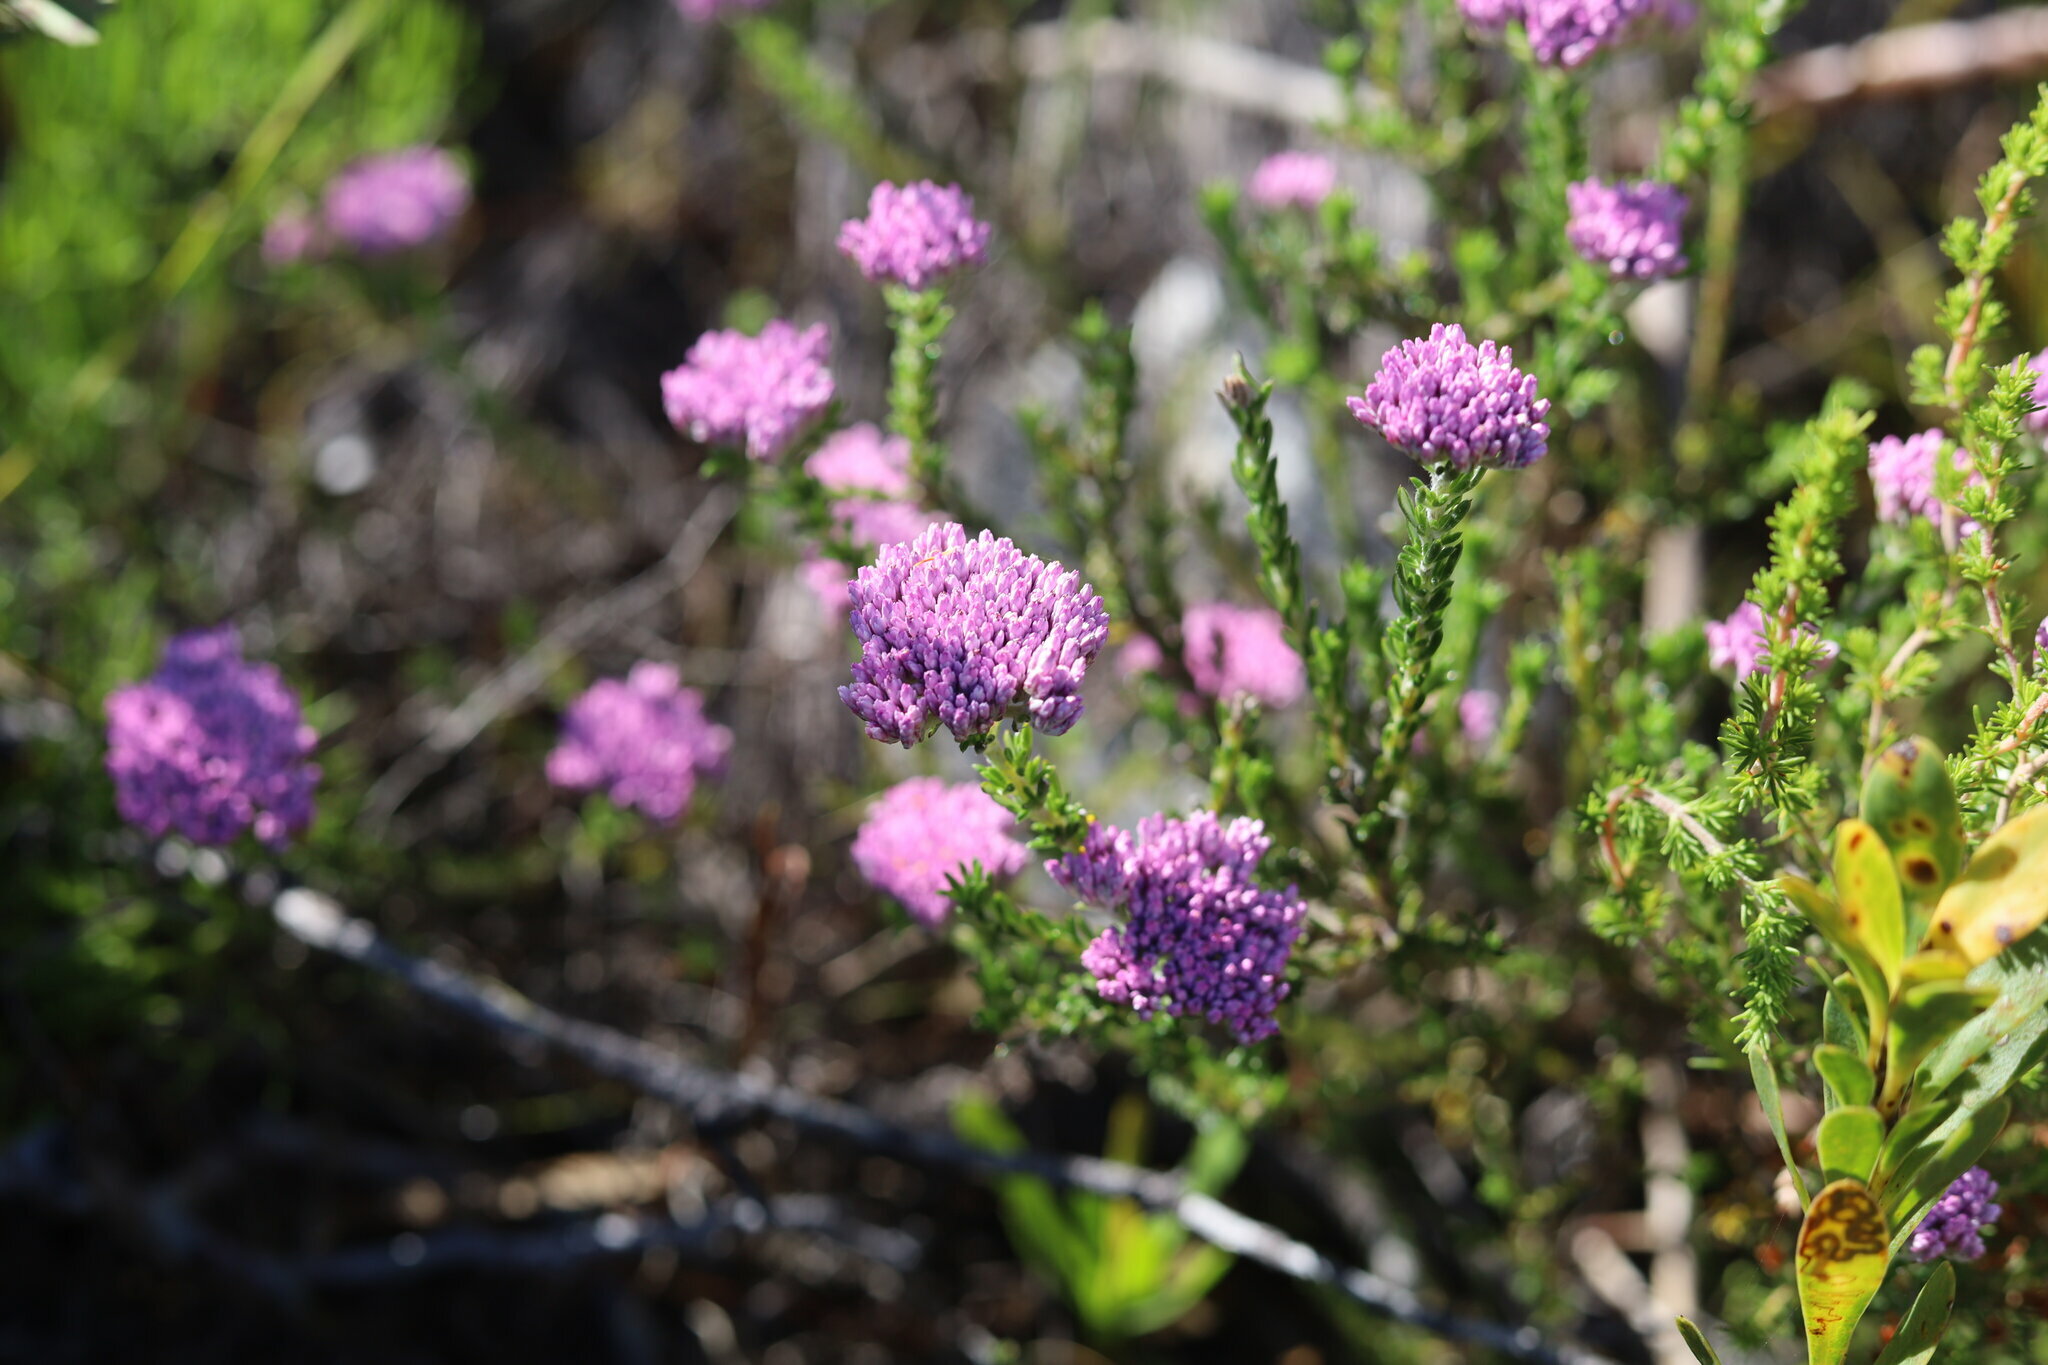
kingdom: Plantae
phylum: Tracheophyta
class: Magnoliopsida
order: Asterales
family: Asteraceae
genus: Metalasia
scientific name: Metalasia erubescens
